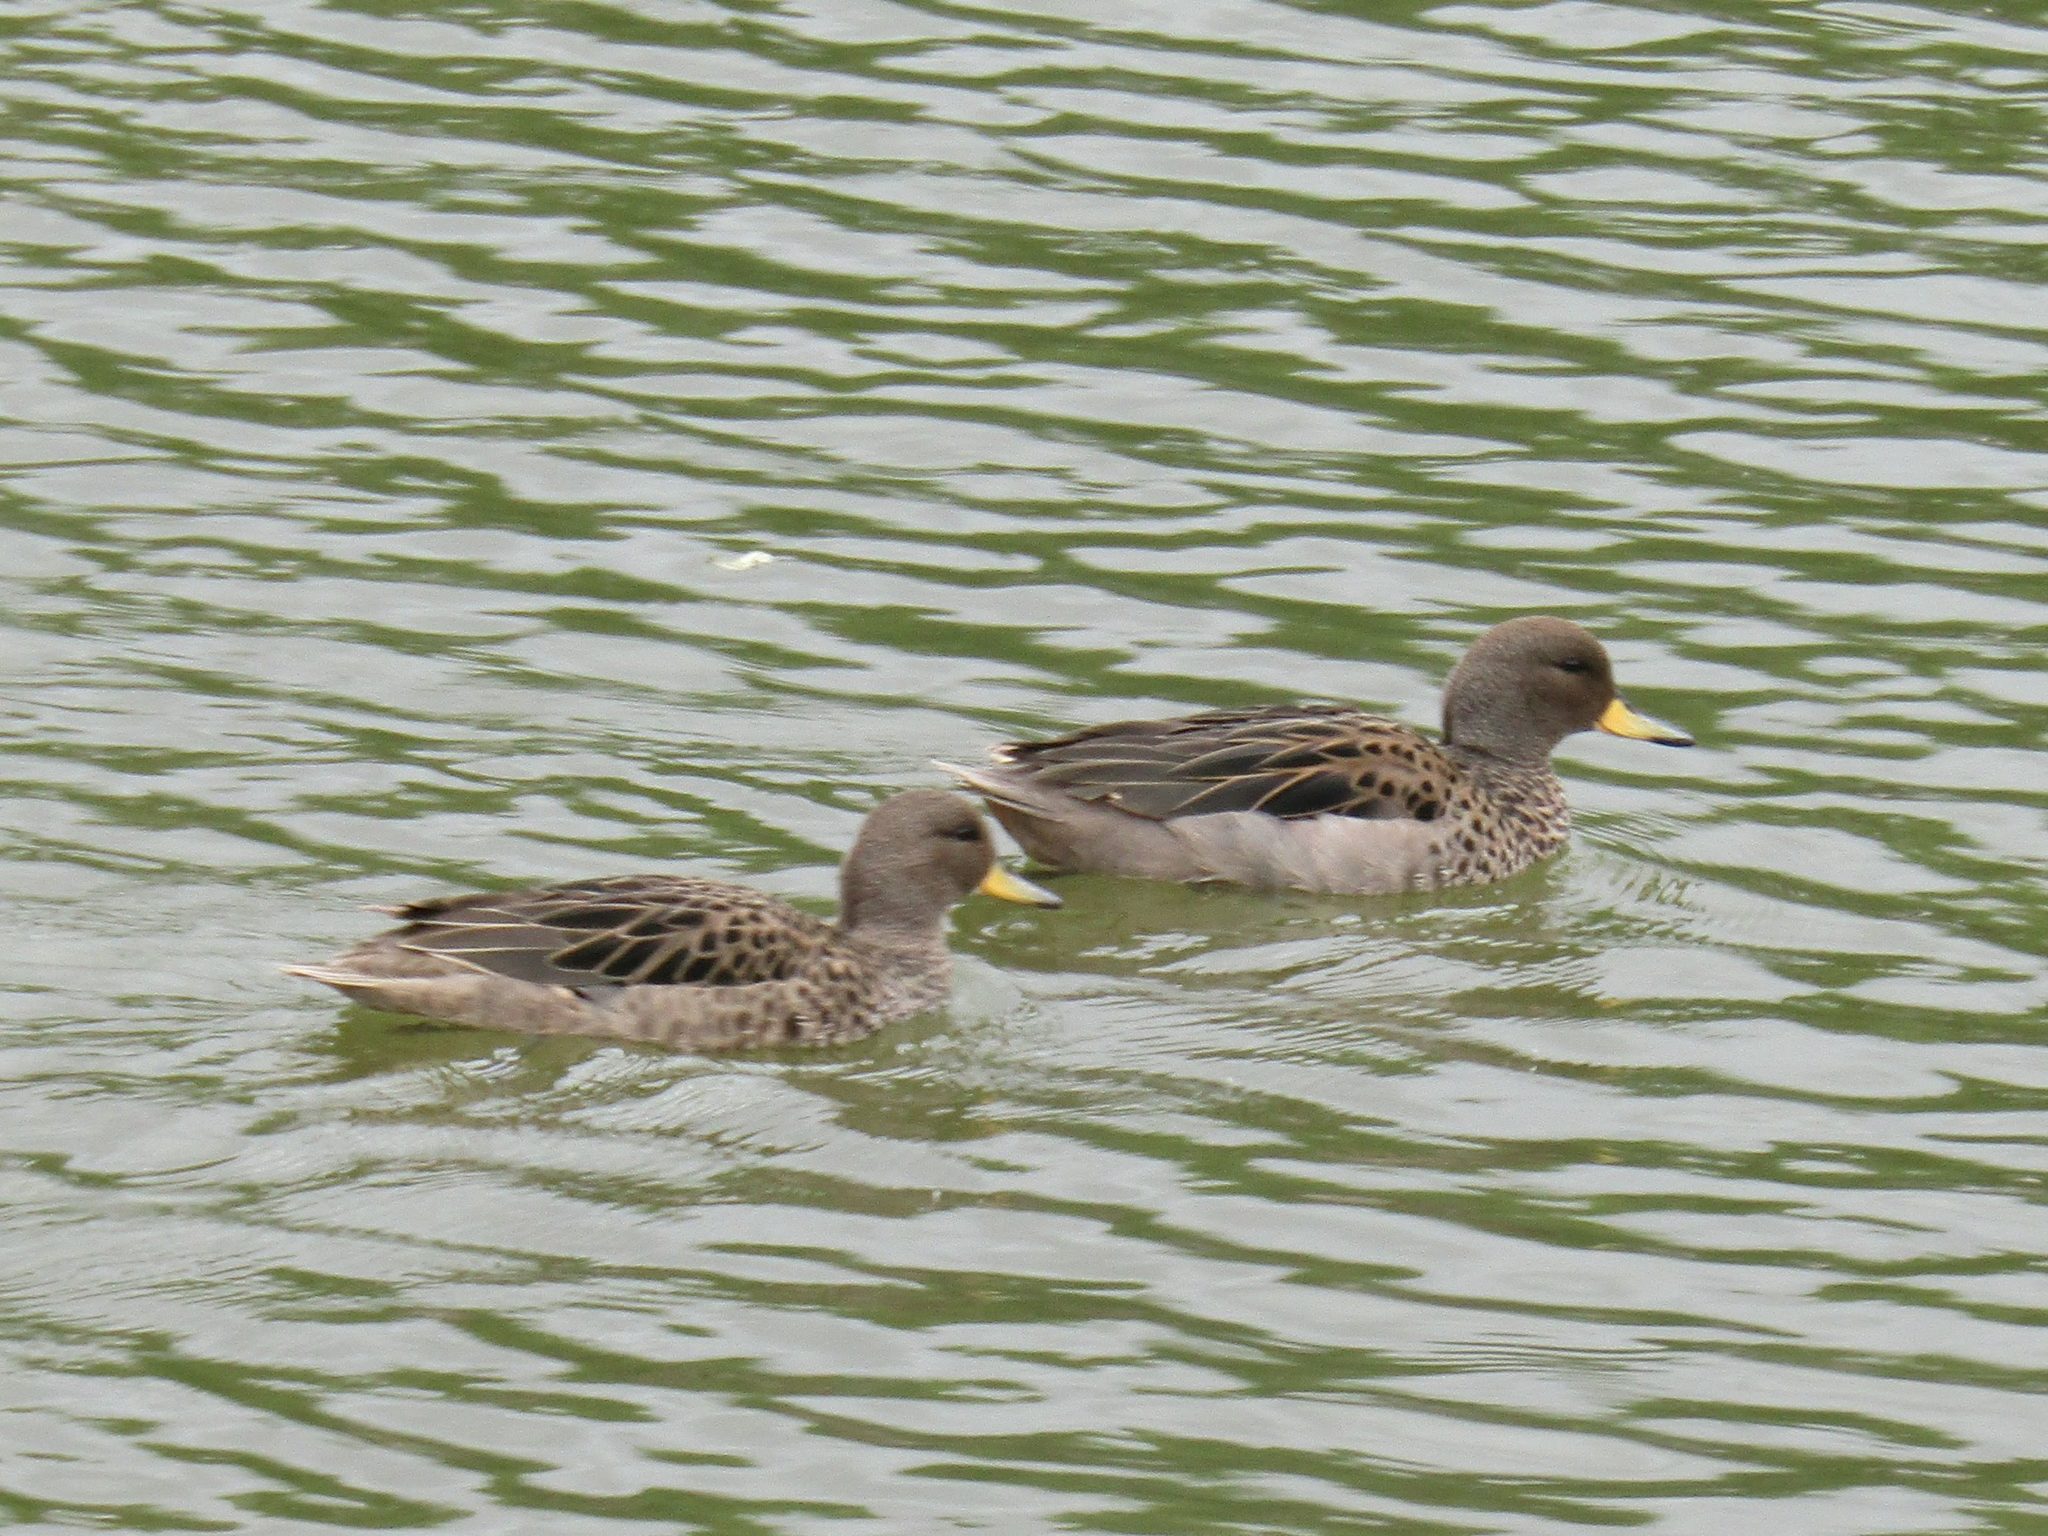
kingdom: Animalia
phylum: Chordata
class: Aves
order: Anseriformes
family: Anatidae
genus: Anas
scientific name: Anas flavirostris
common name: Yellow-billed teal
